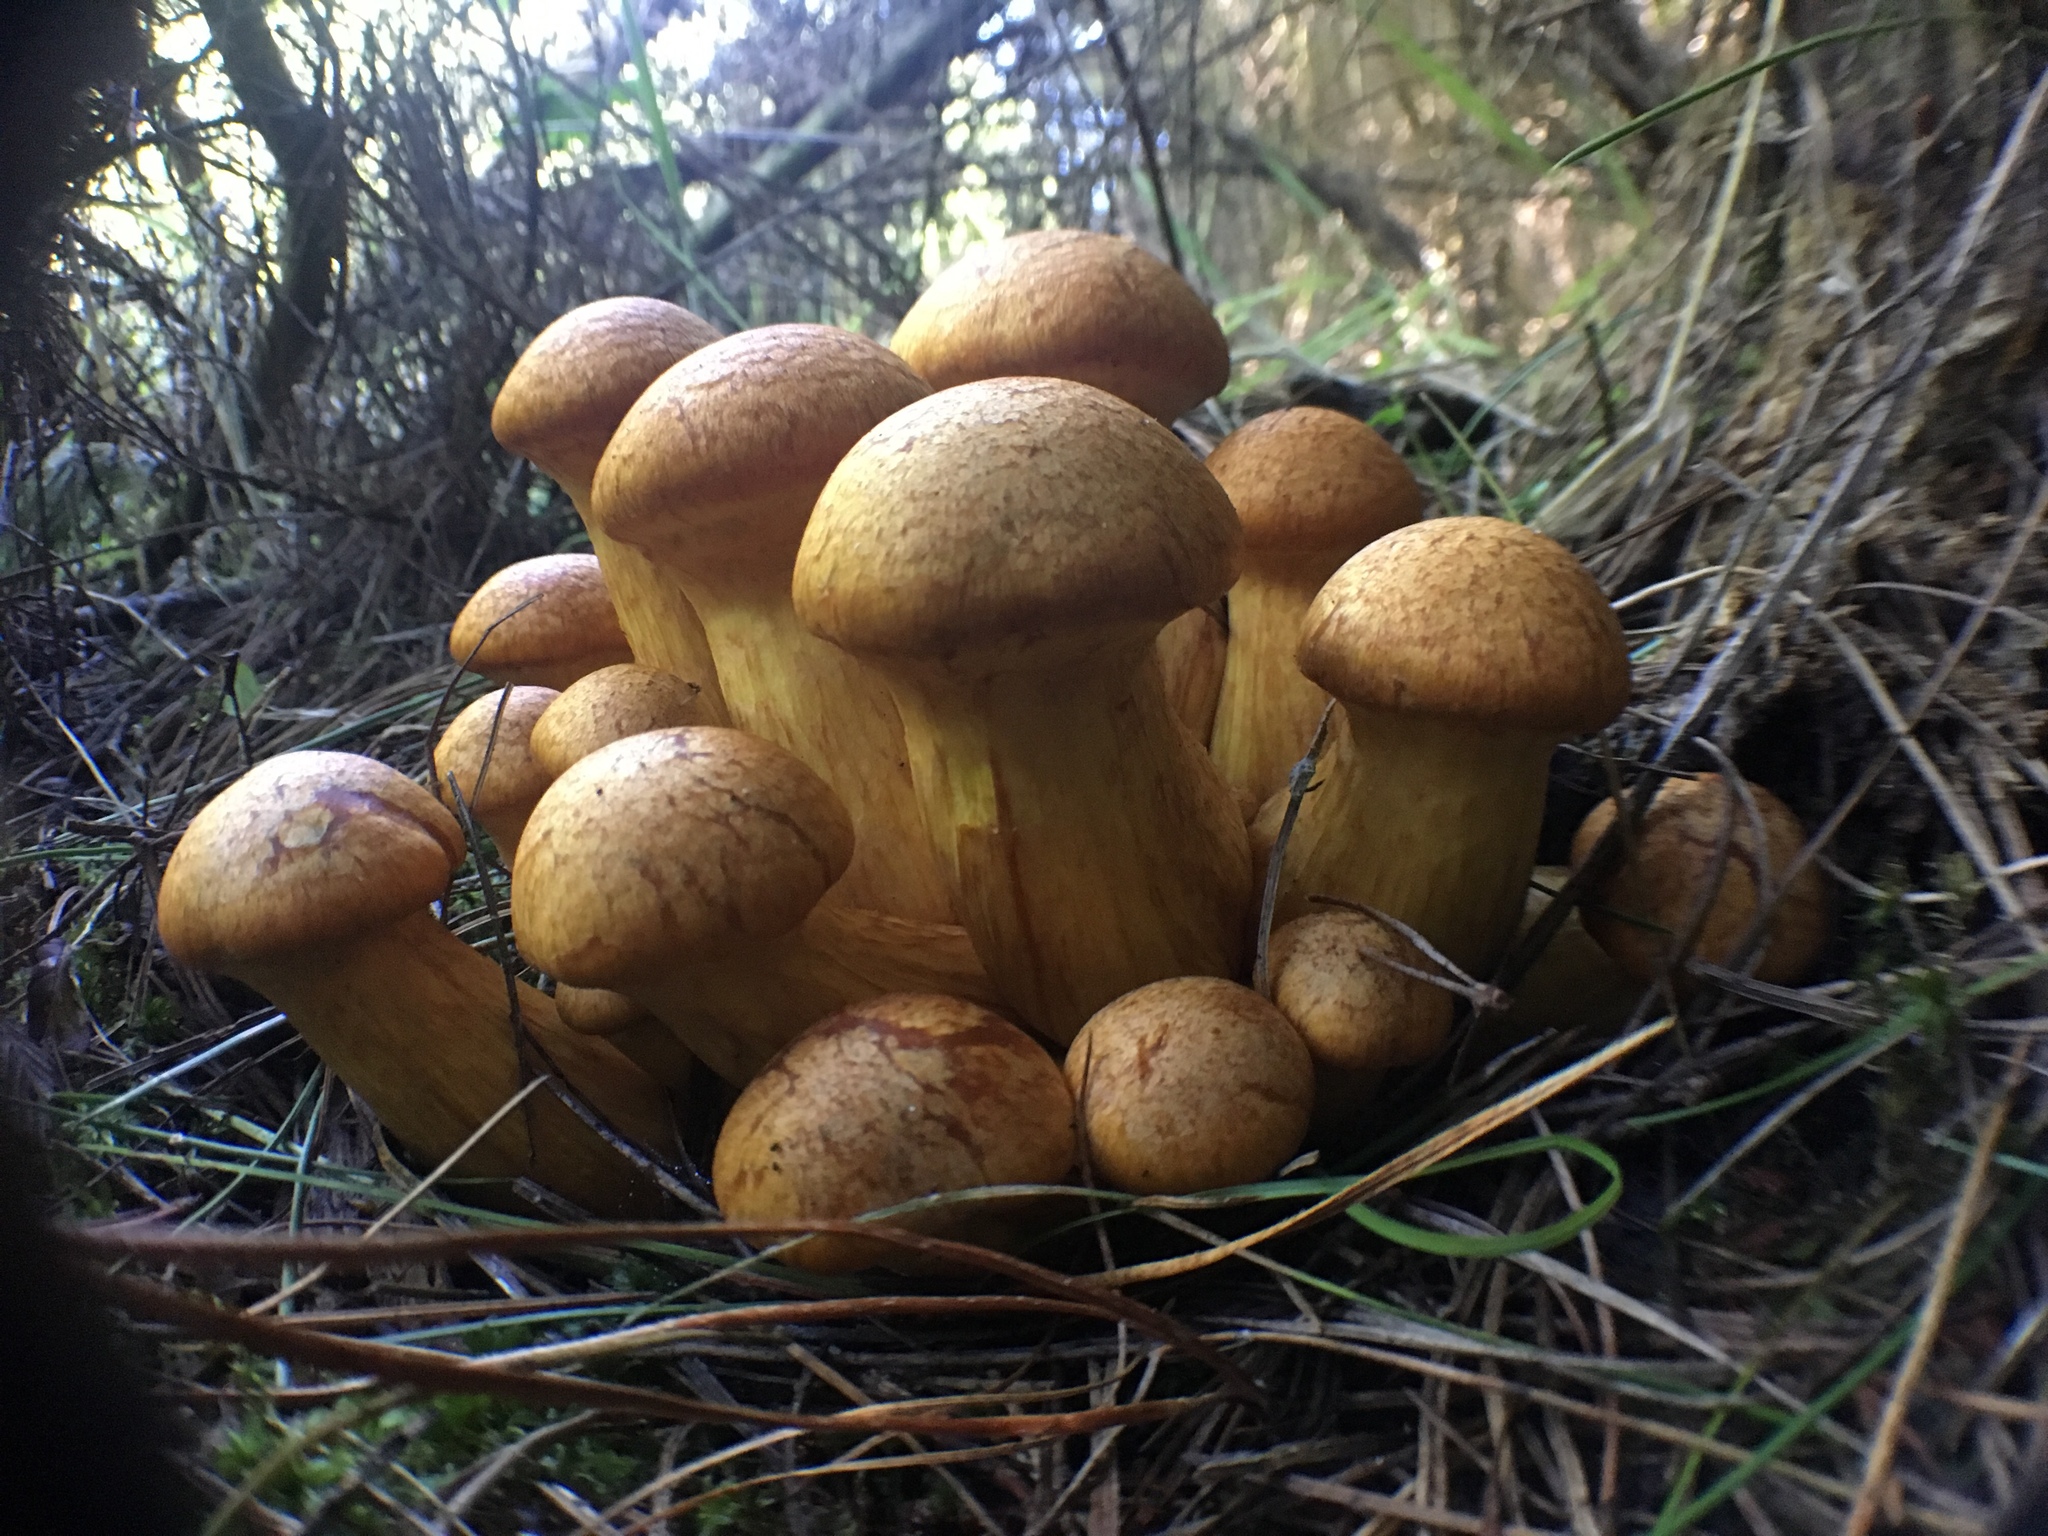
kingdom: Fungi
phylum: Basidiomycota
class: Agaricomycetes
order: Agaricales
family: Hymenogastraceae
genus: Gymnopilus
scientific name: Gymnopilus junonius
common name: Spectacular rustgill
